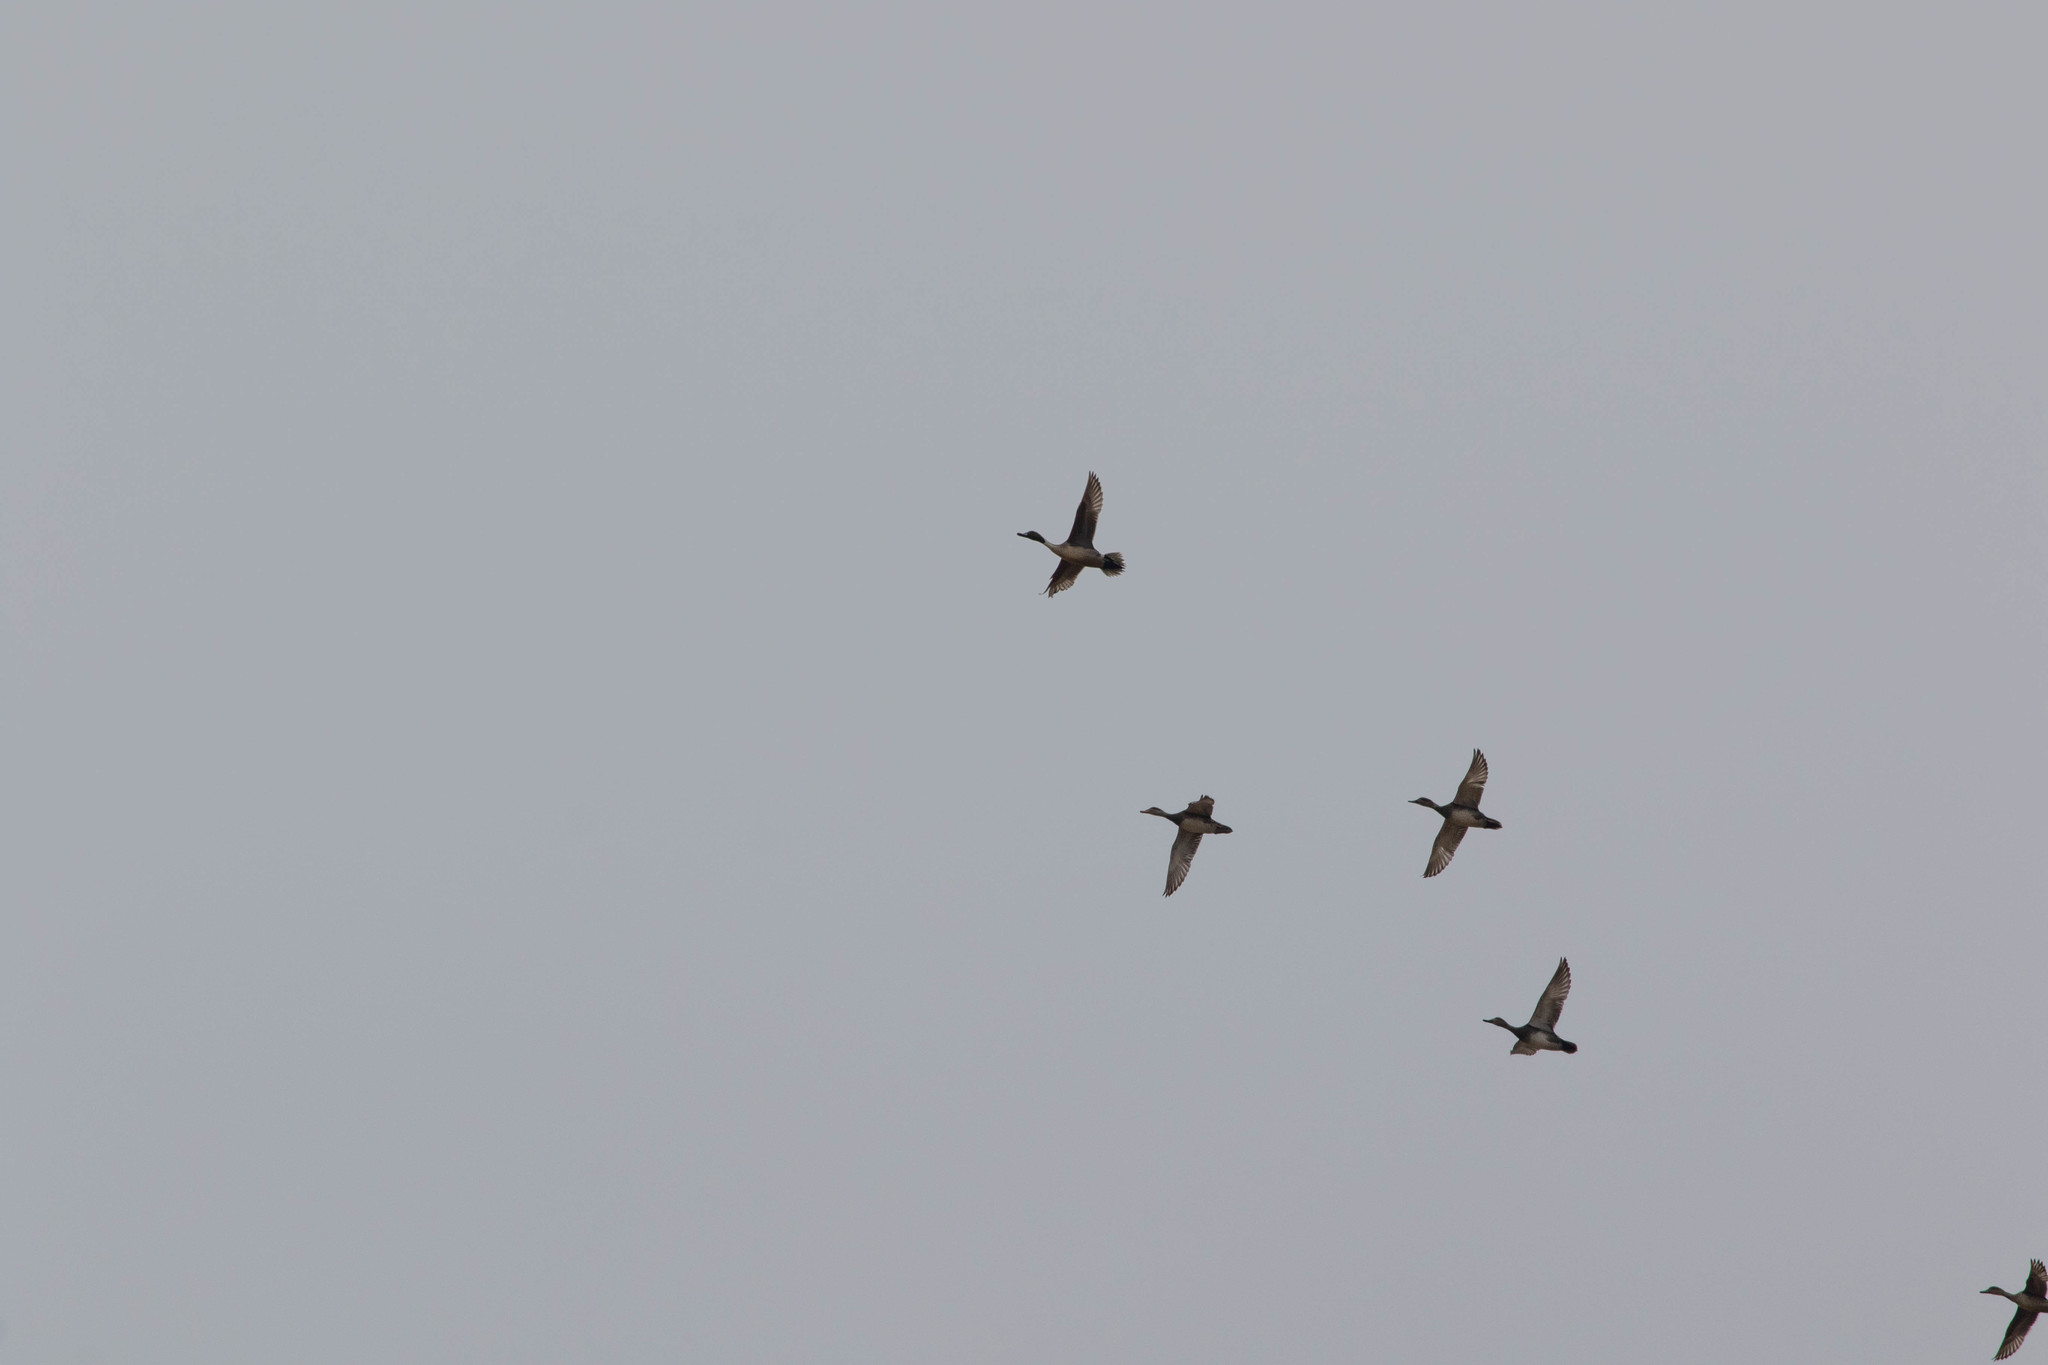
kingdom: Animalia
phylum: Chordata
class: Aves
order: Anseriformes
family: Anatidae
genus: Anas
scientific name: Anas acuta
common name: Northern pintail
